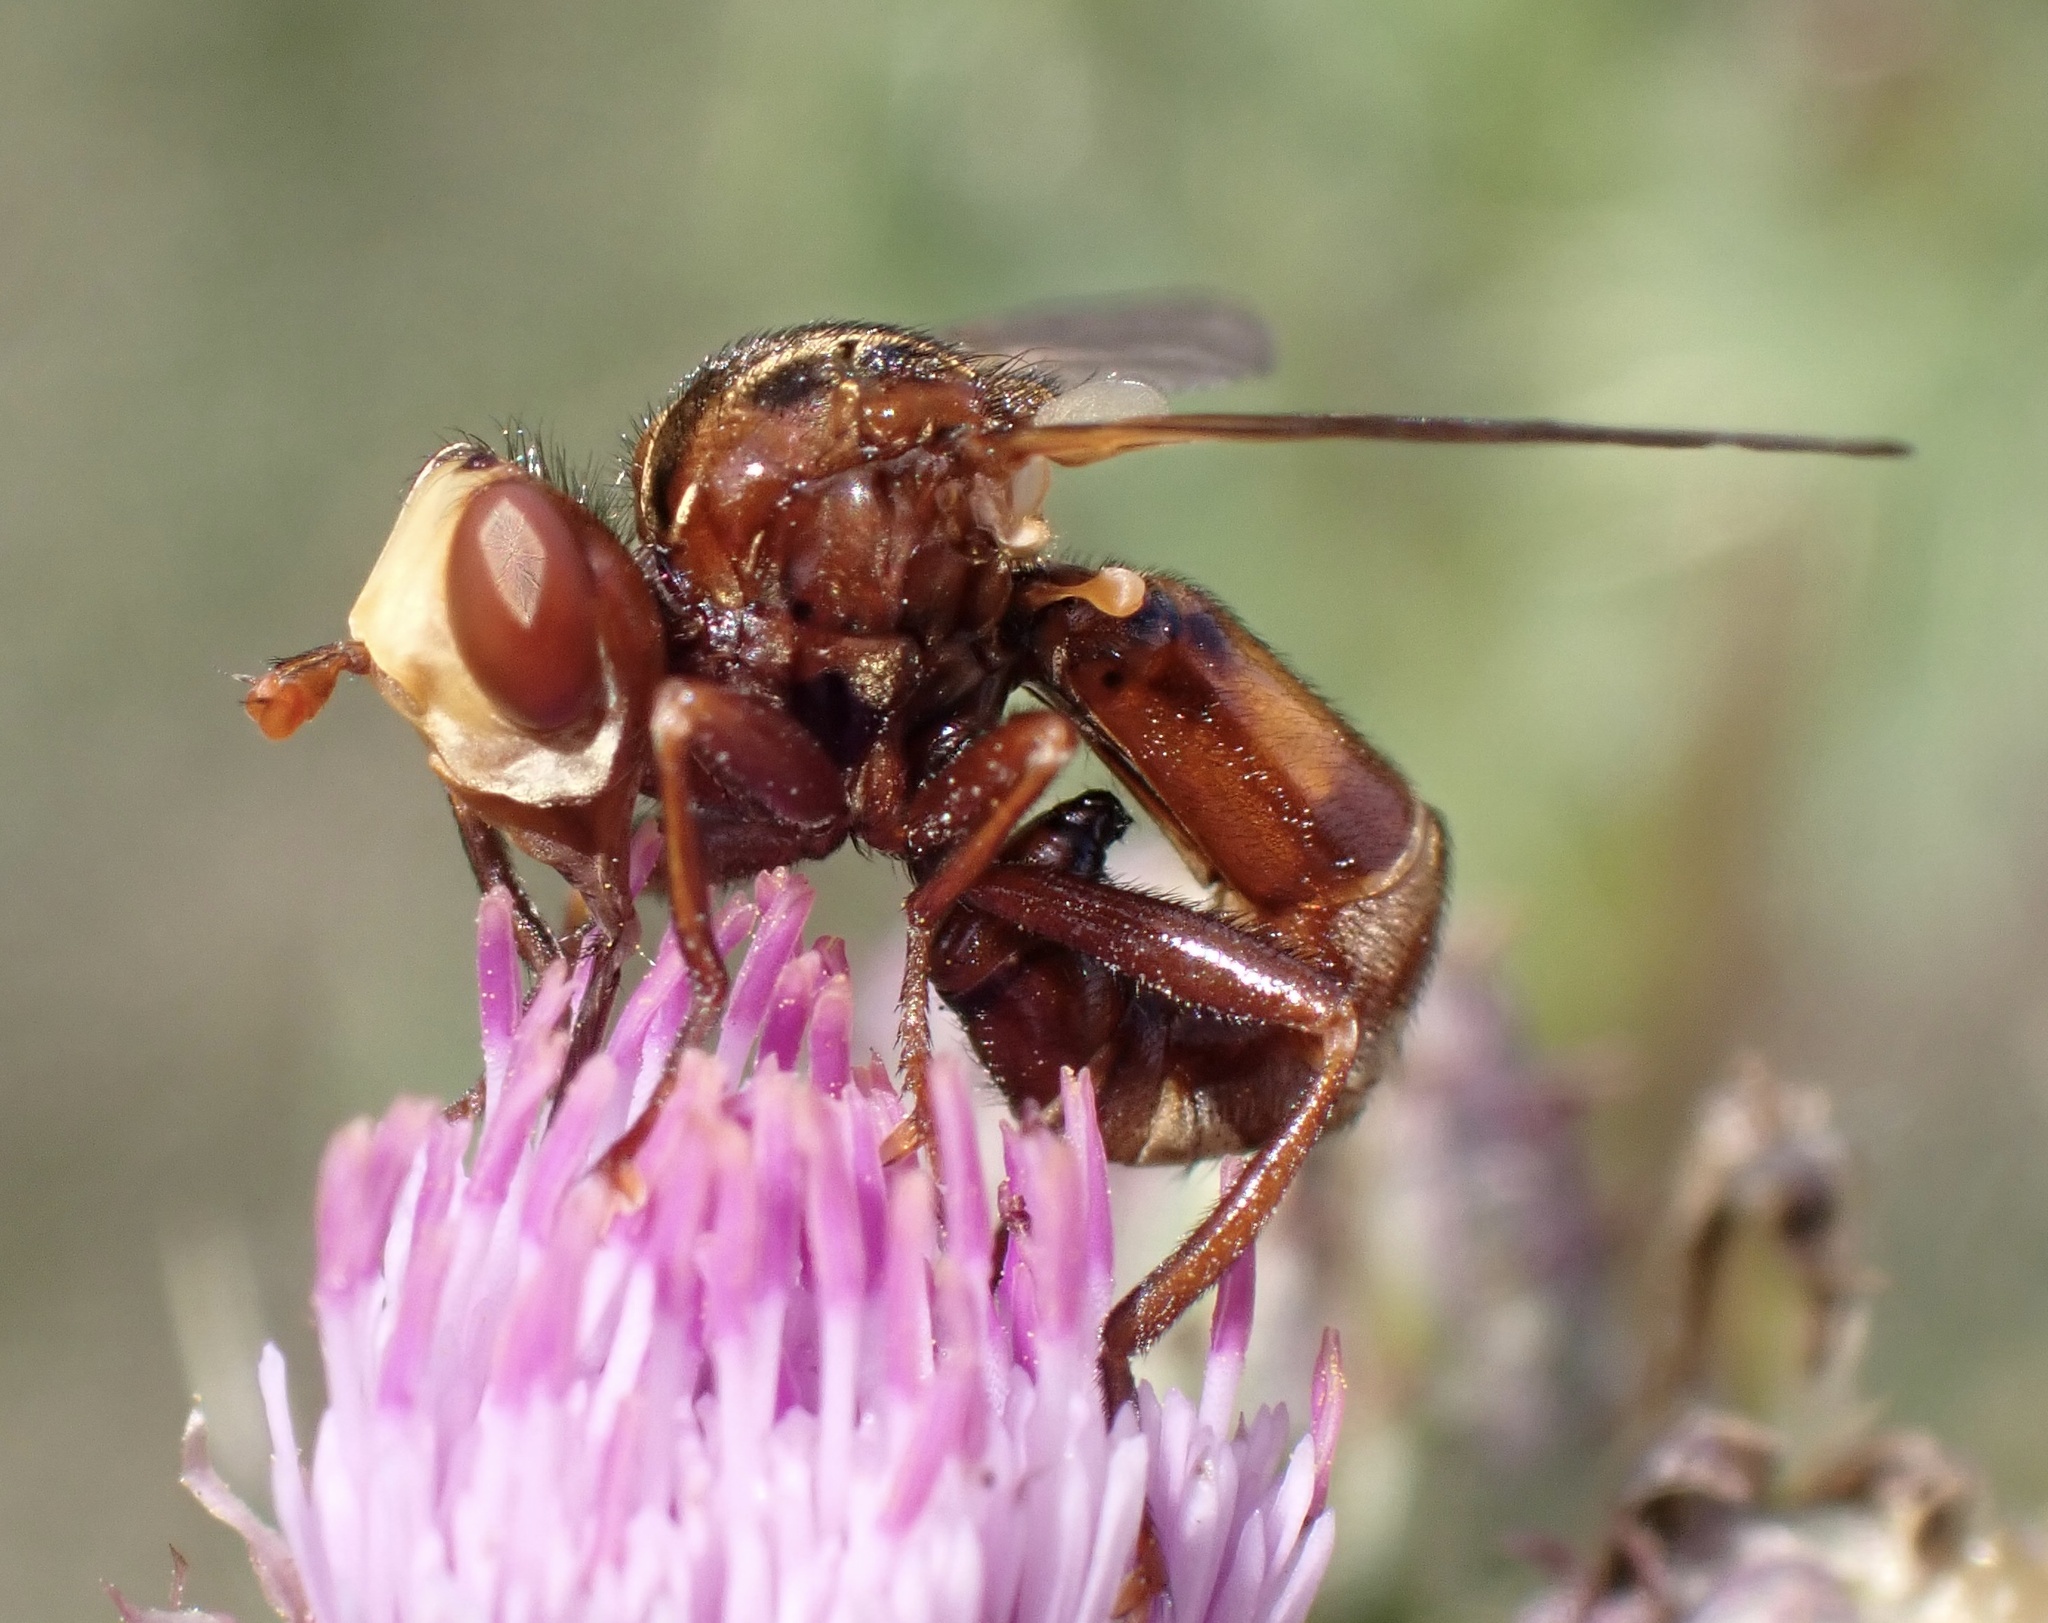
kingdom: Animalia
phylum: Arthropoda
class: Insecta
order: Diptera
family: Conopidae
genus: Sicus
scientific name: Sicus ferrugineus
